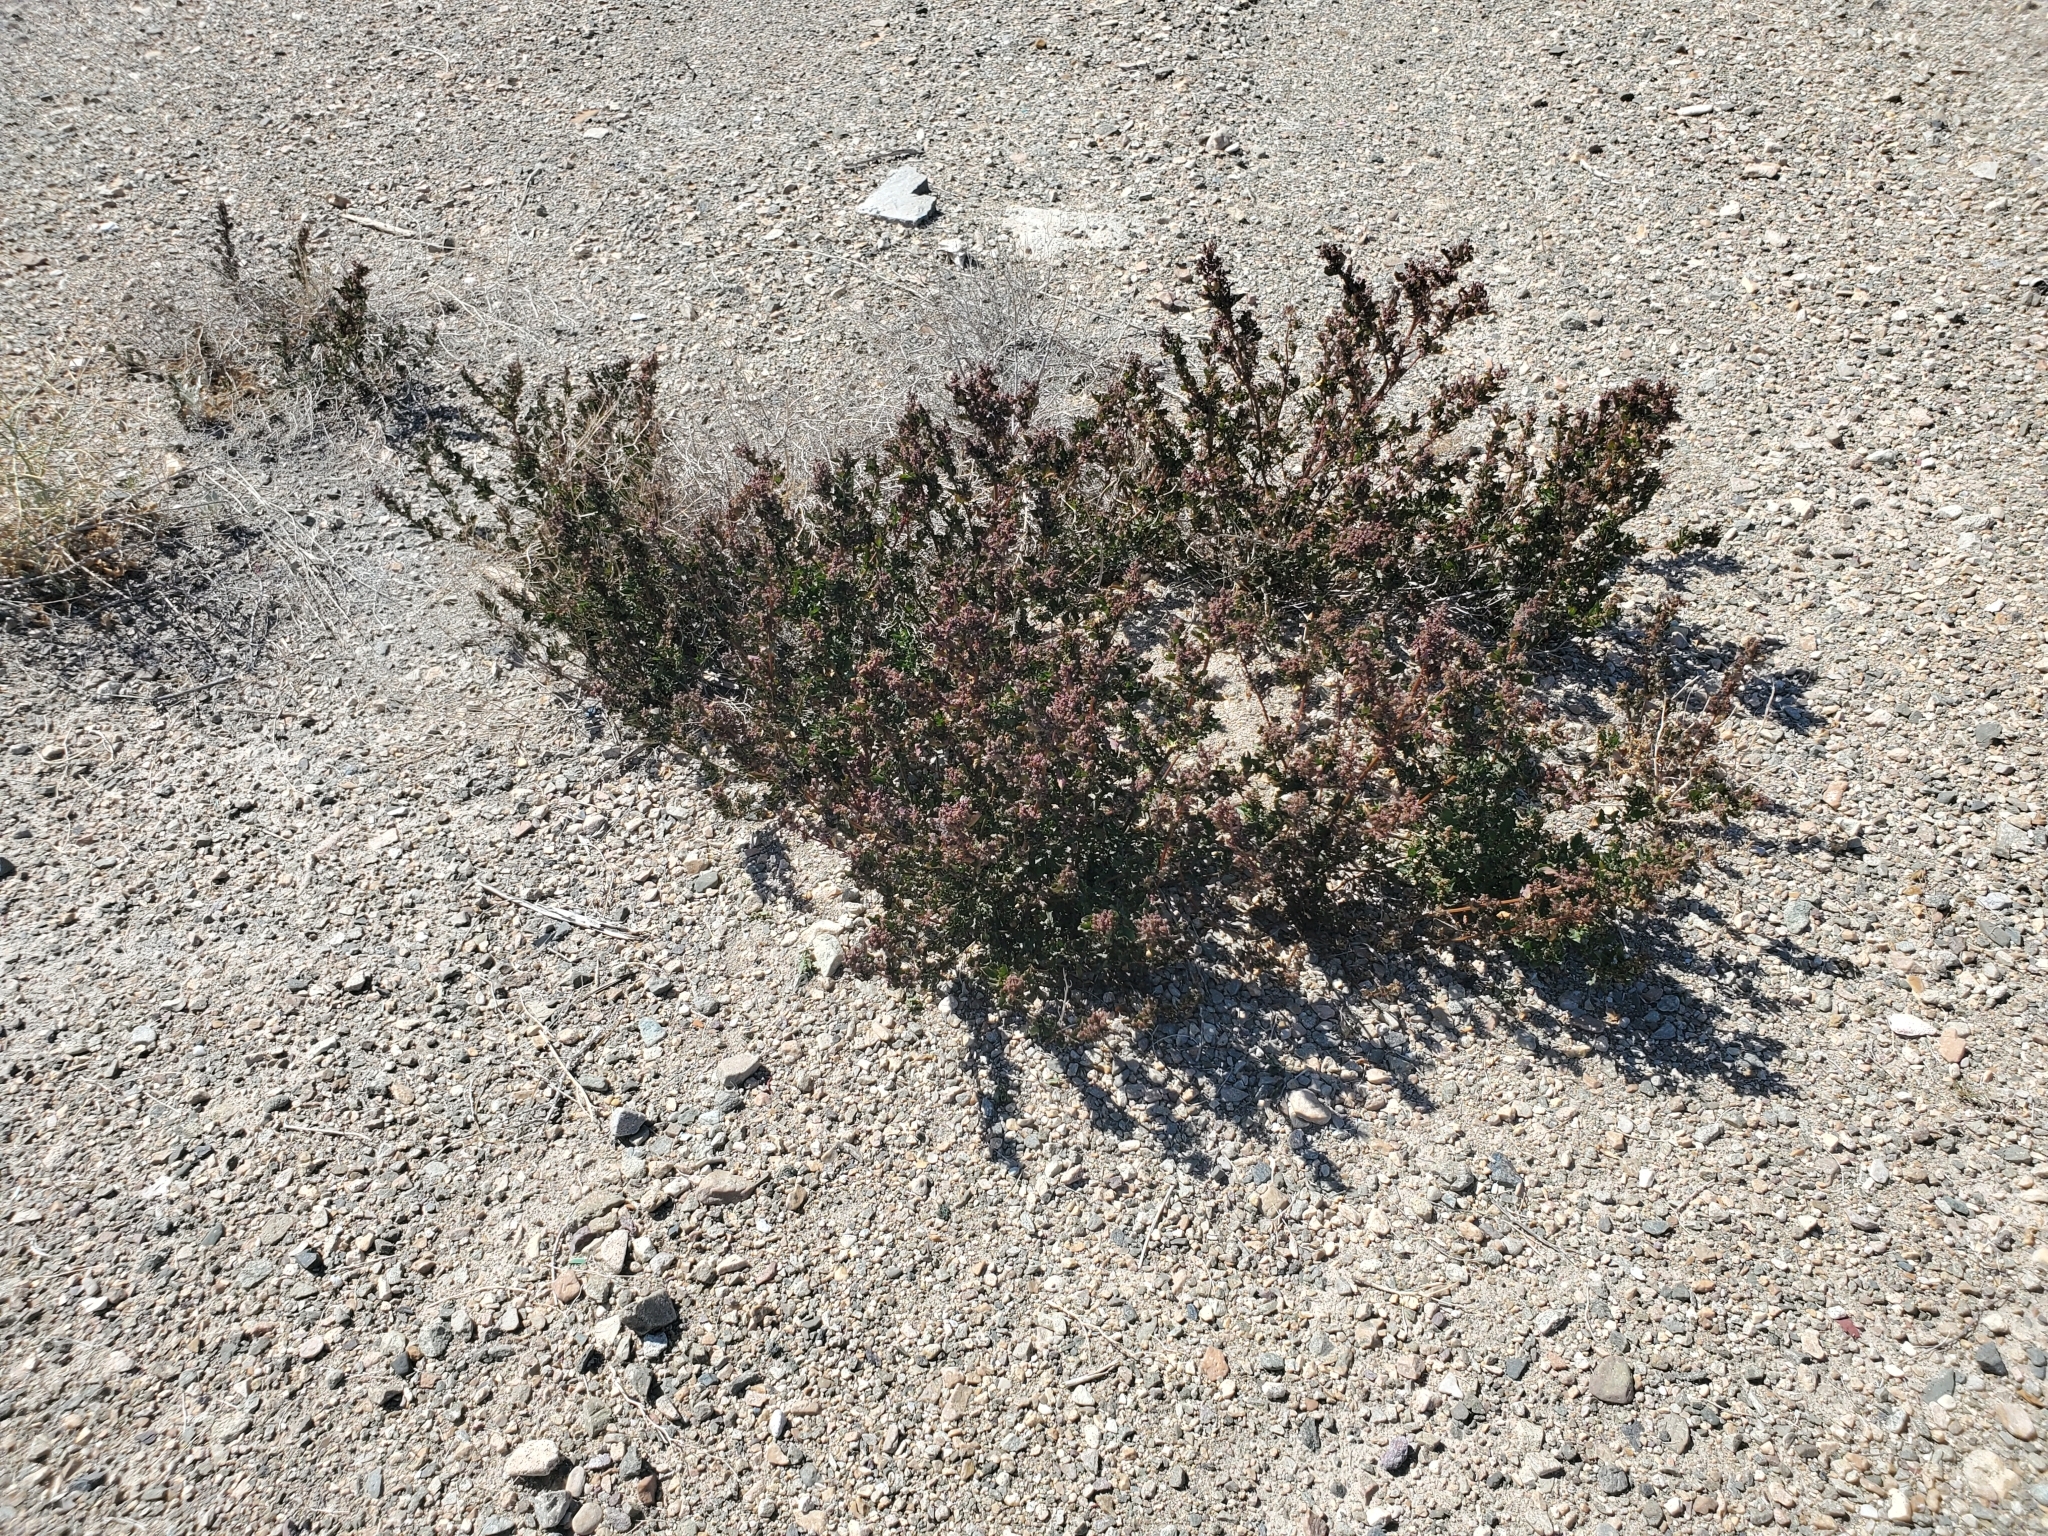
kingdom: Plantae
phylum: Tracheophyta
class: Magnoliopsida
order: Caryophyllales
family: Amaranthaceae
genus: Chenopodiastrum
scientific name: Chenopodiastrum murale
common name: Sowbane
